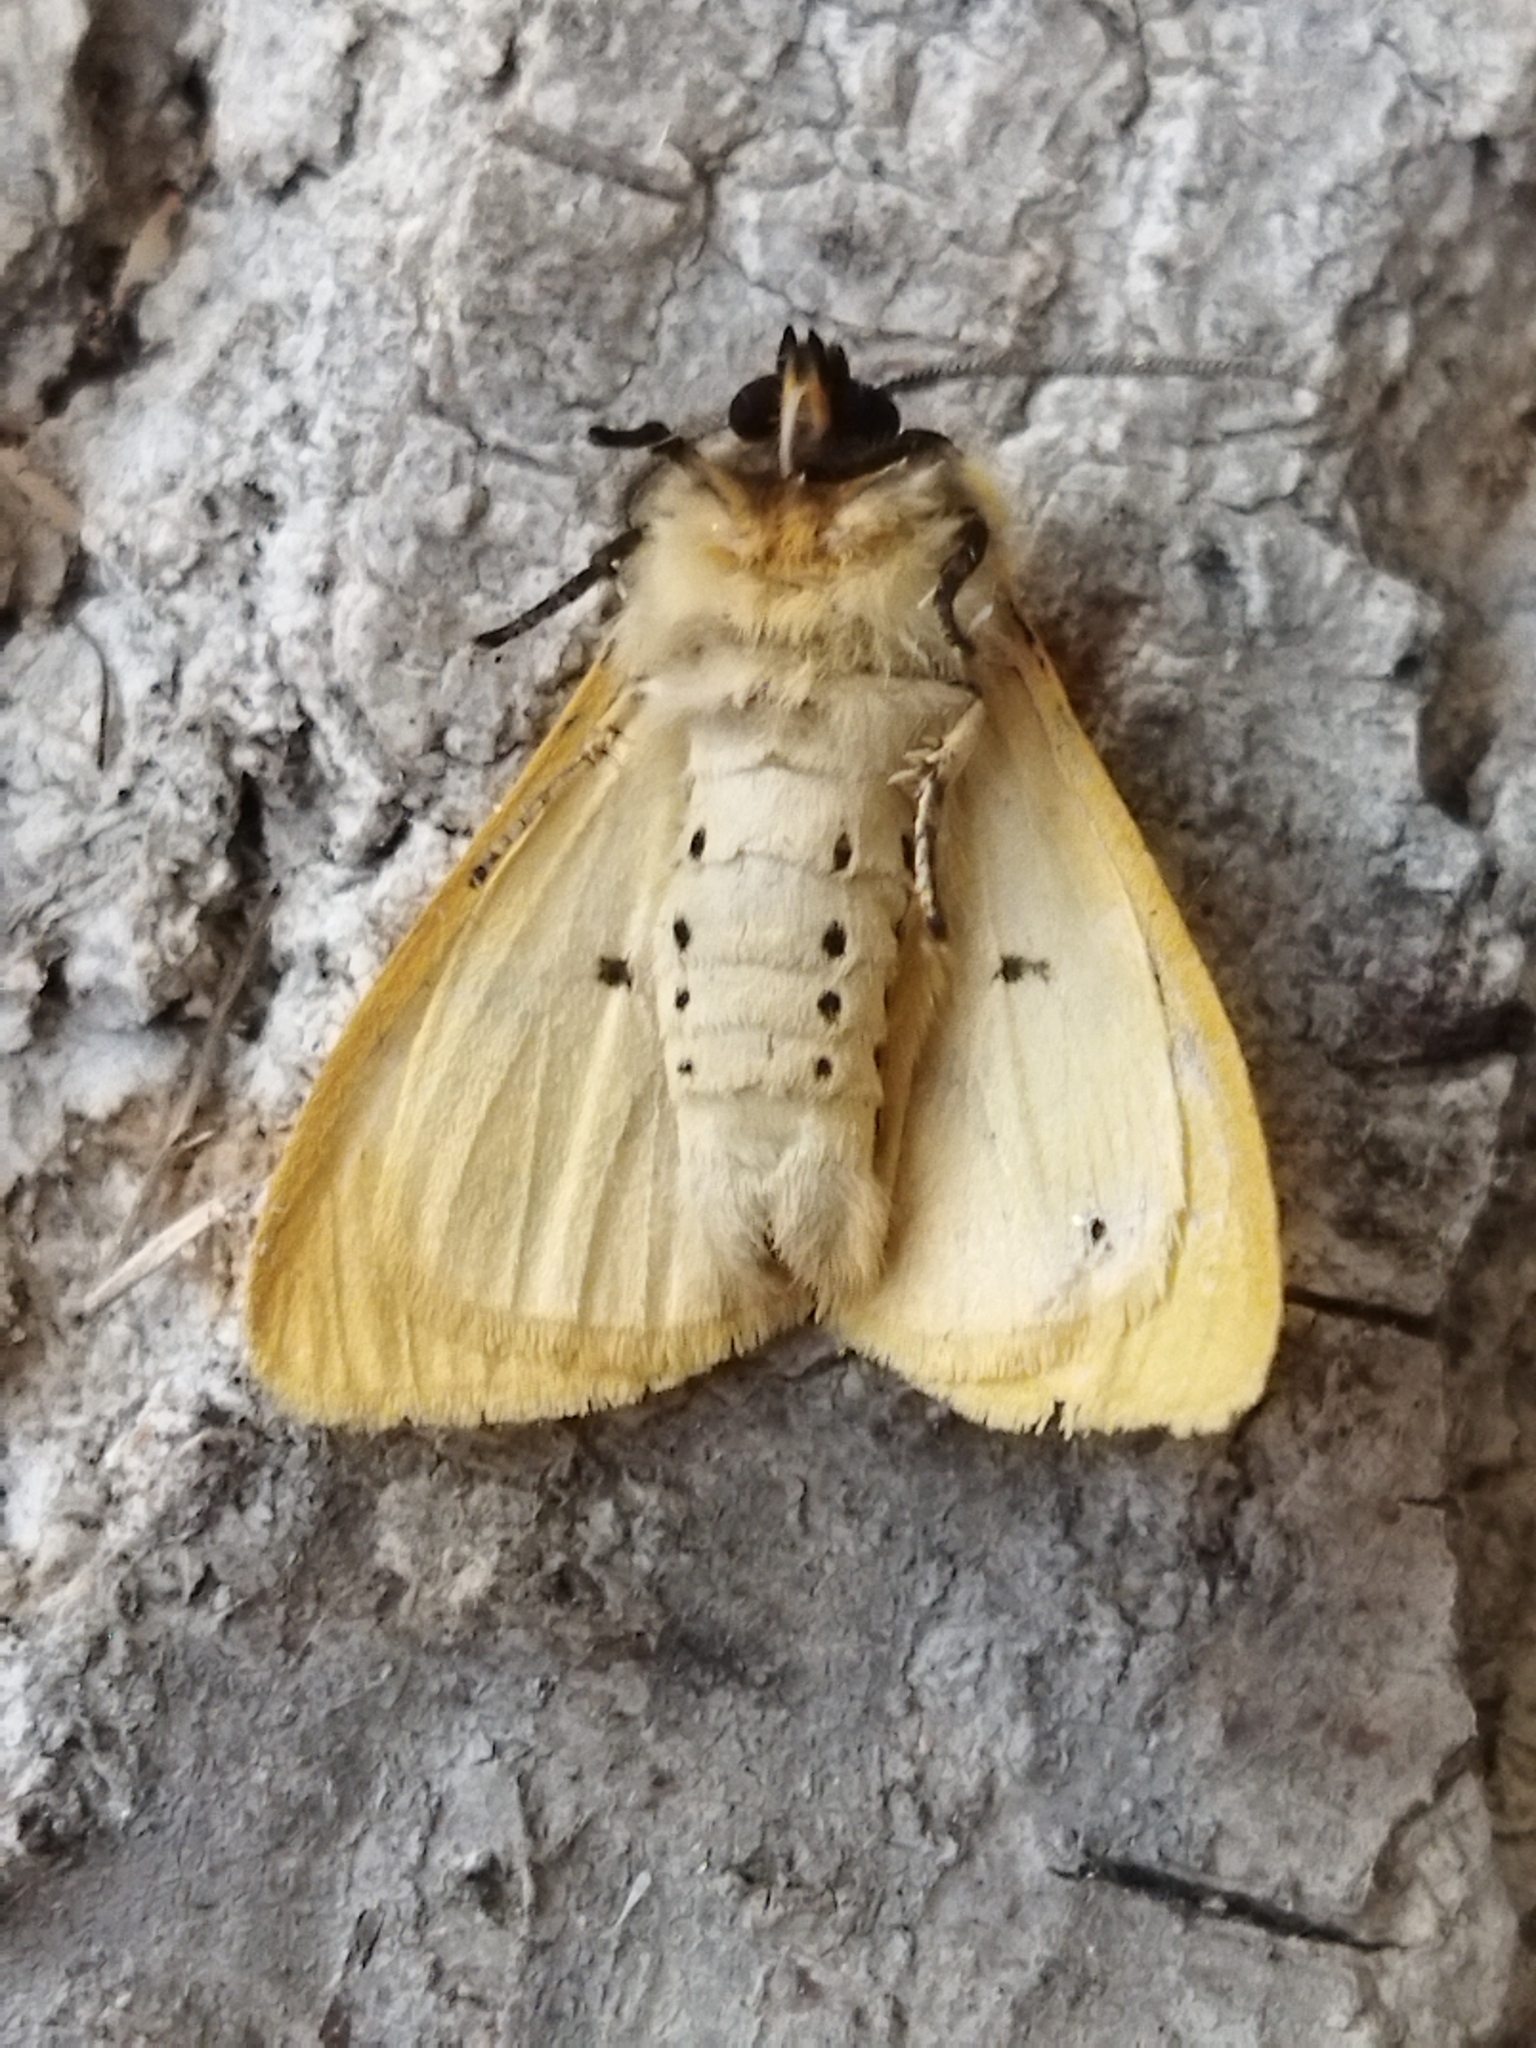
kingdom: Animalia
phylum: Arthropoda
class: Insecta
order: Lepidoptera
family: Erebidae
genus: Spilarctia
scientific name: Spilarctia lutea
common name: Buff ermine
